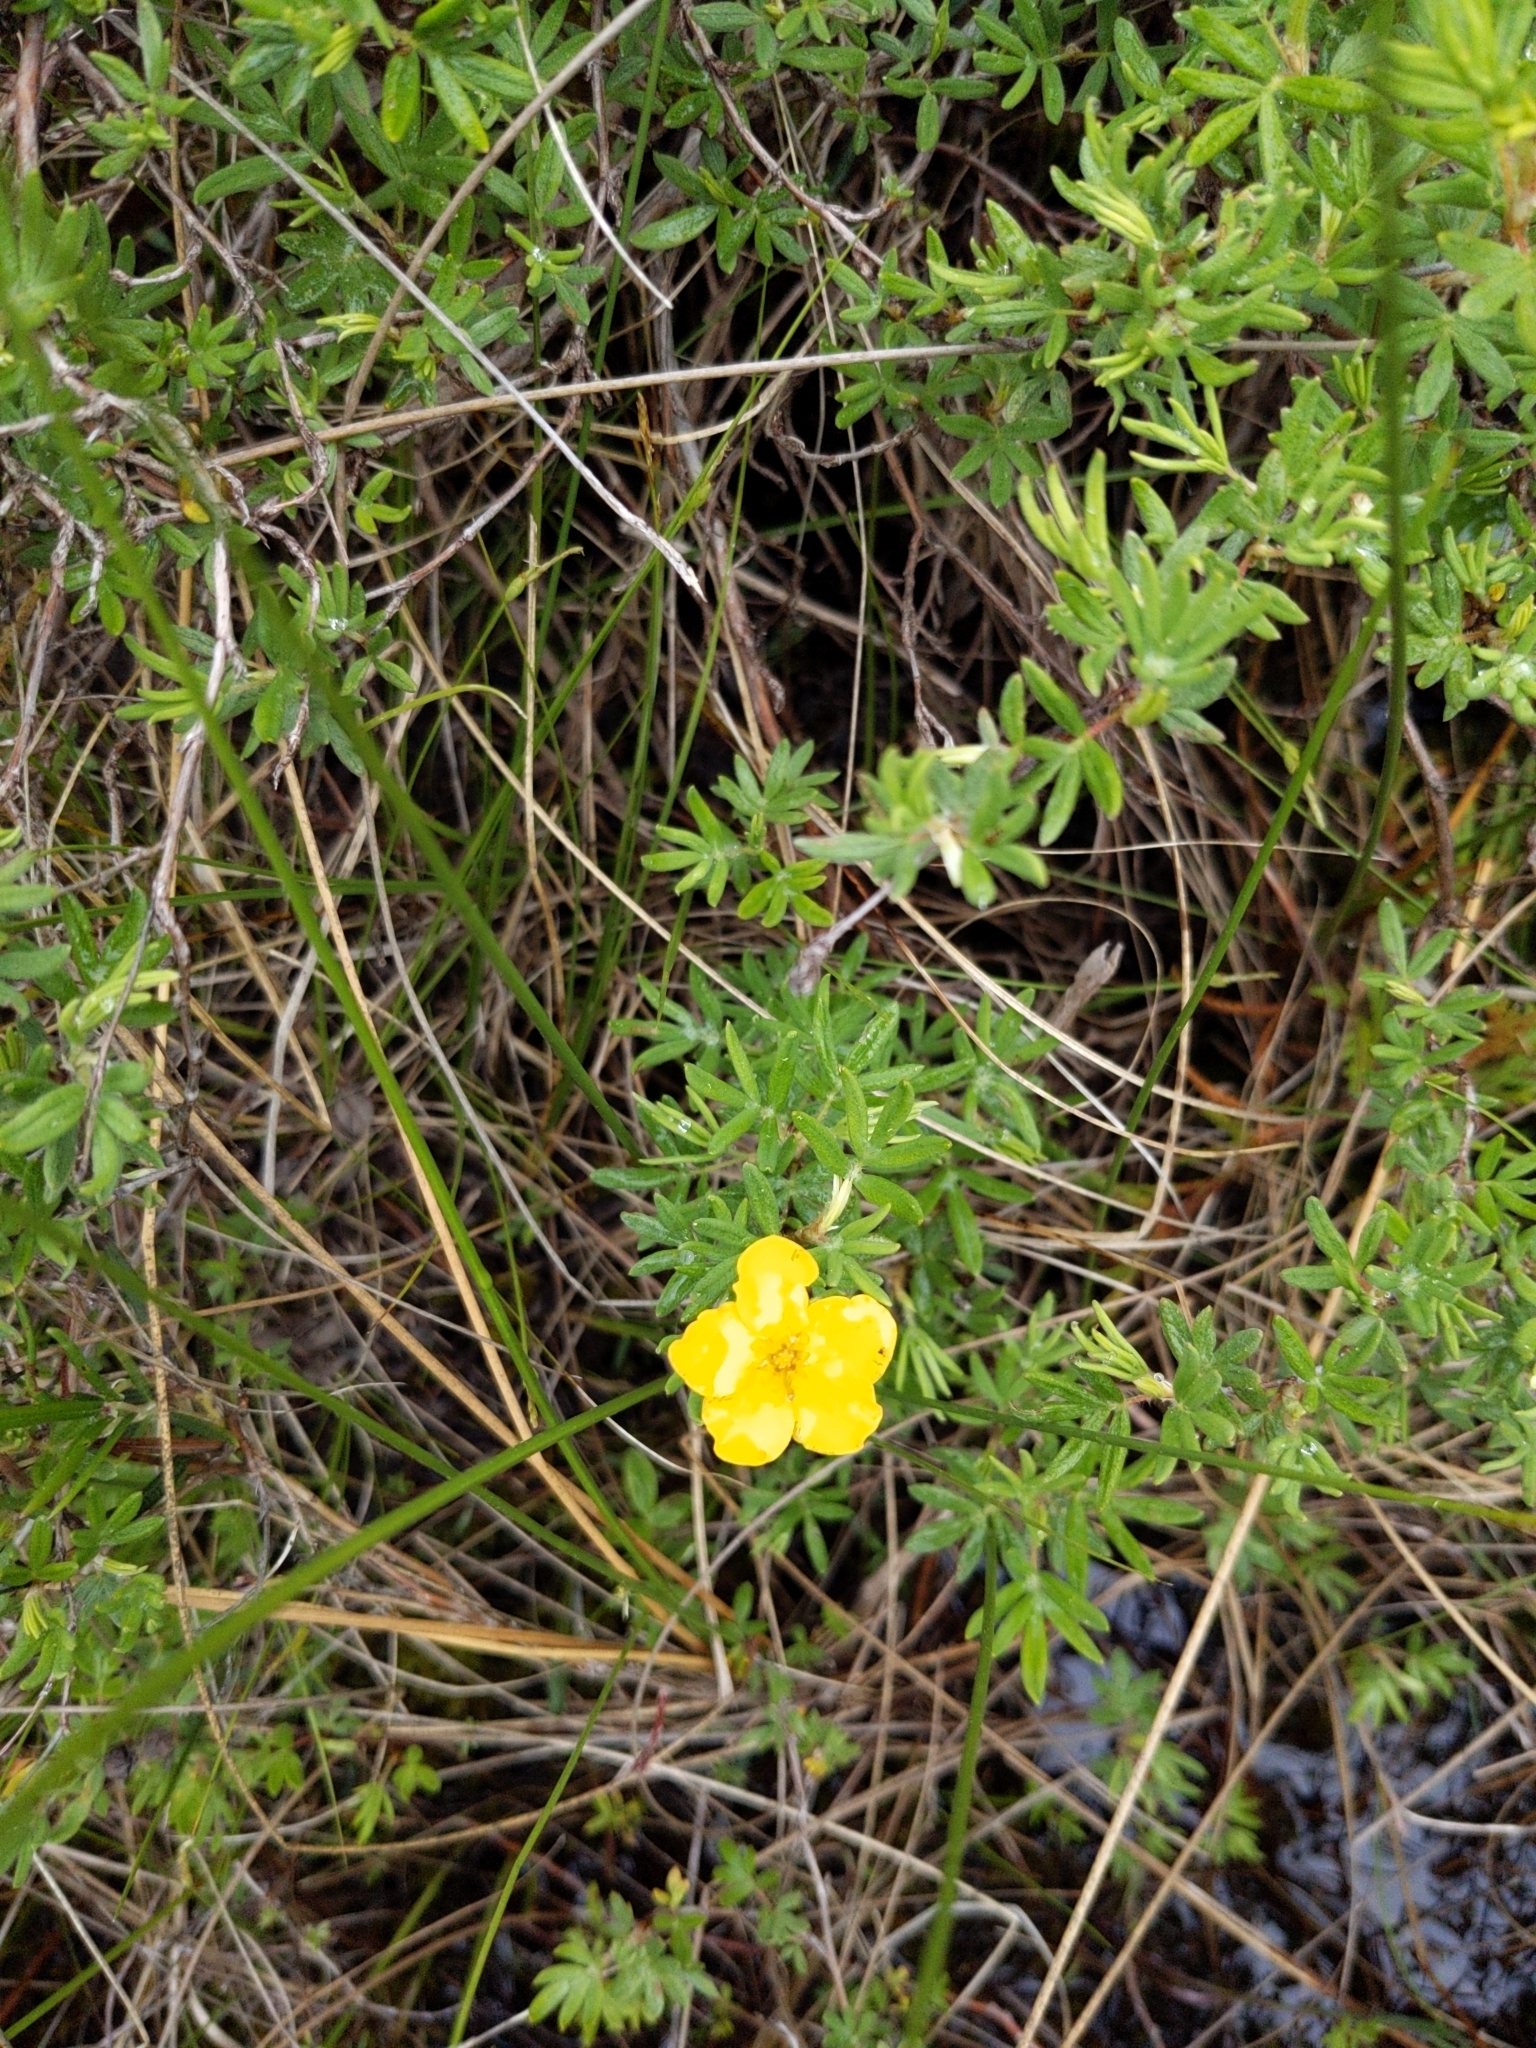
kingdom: Plantae
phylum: Tracheophyta
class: Magnoliopsida
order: Rosales
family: Rosaceae
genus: Dasiphora
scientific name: Dasiphora fruticosa
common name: Shrubby cinquefoil
